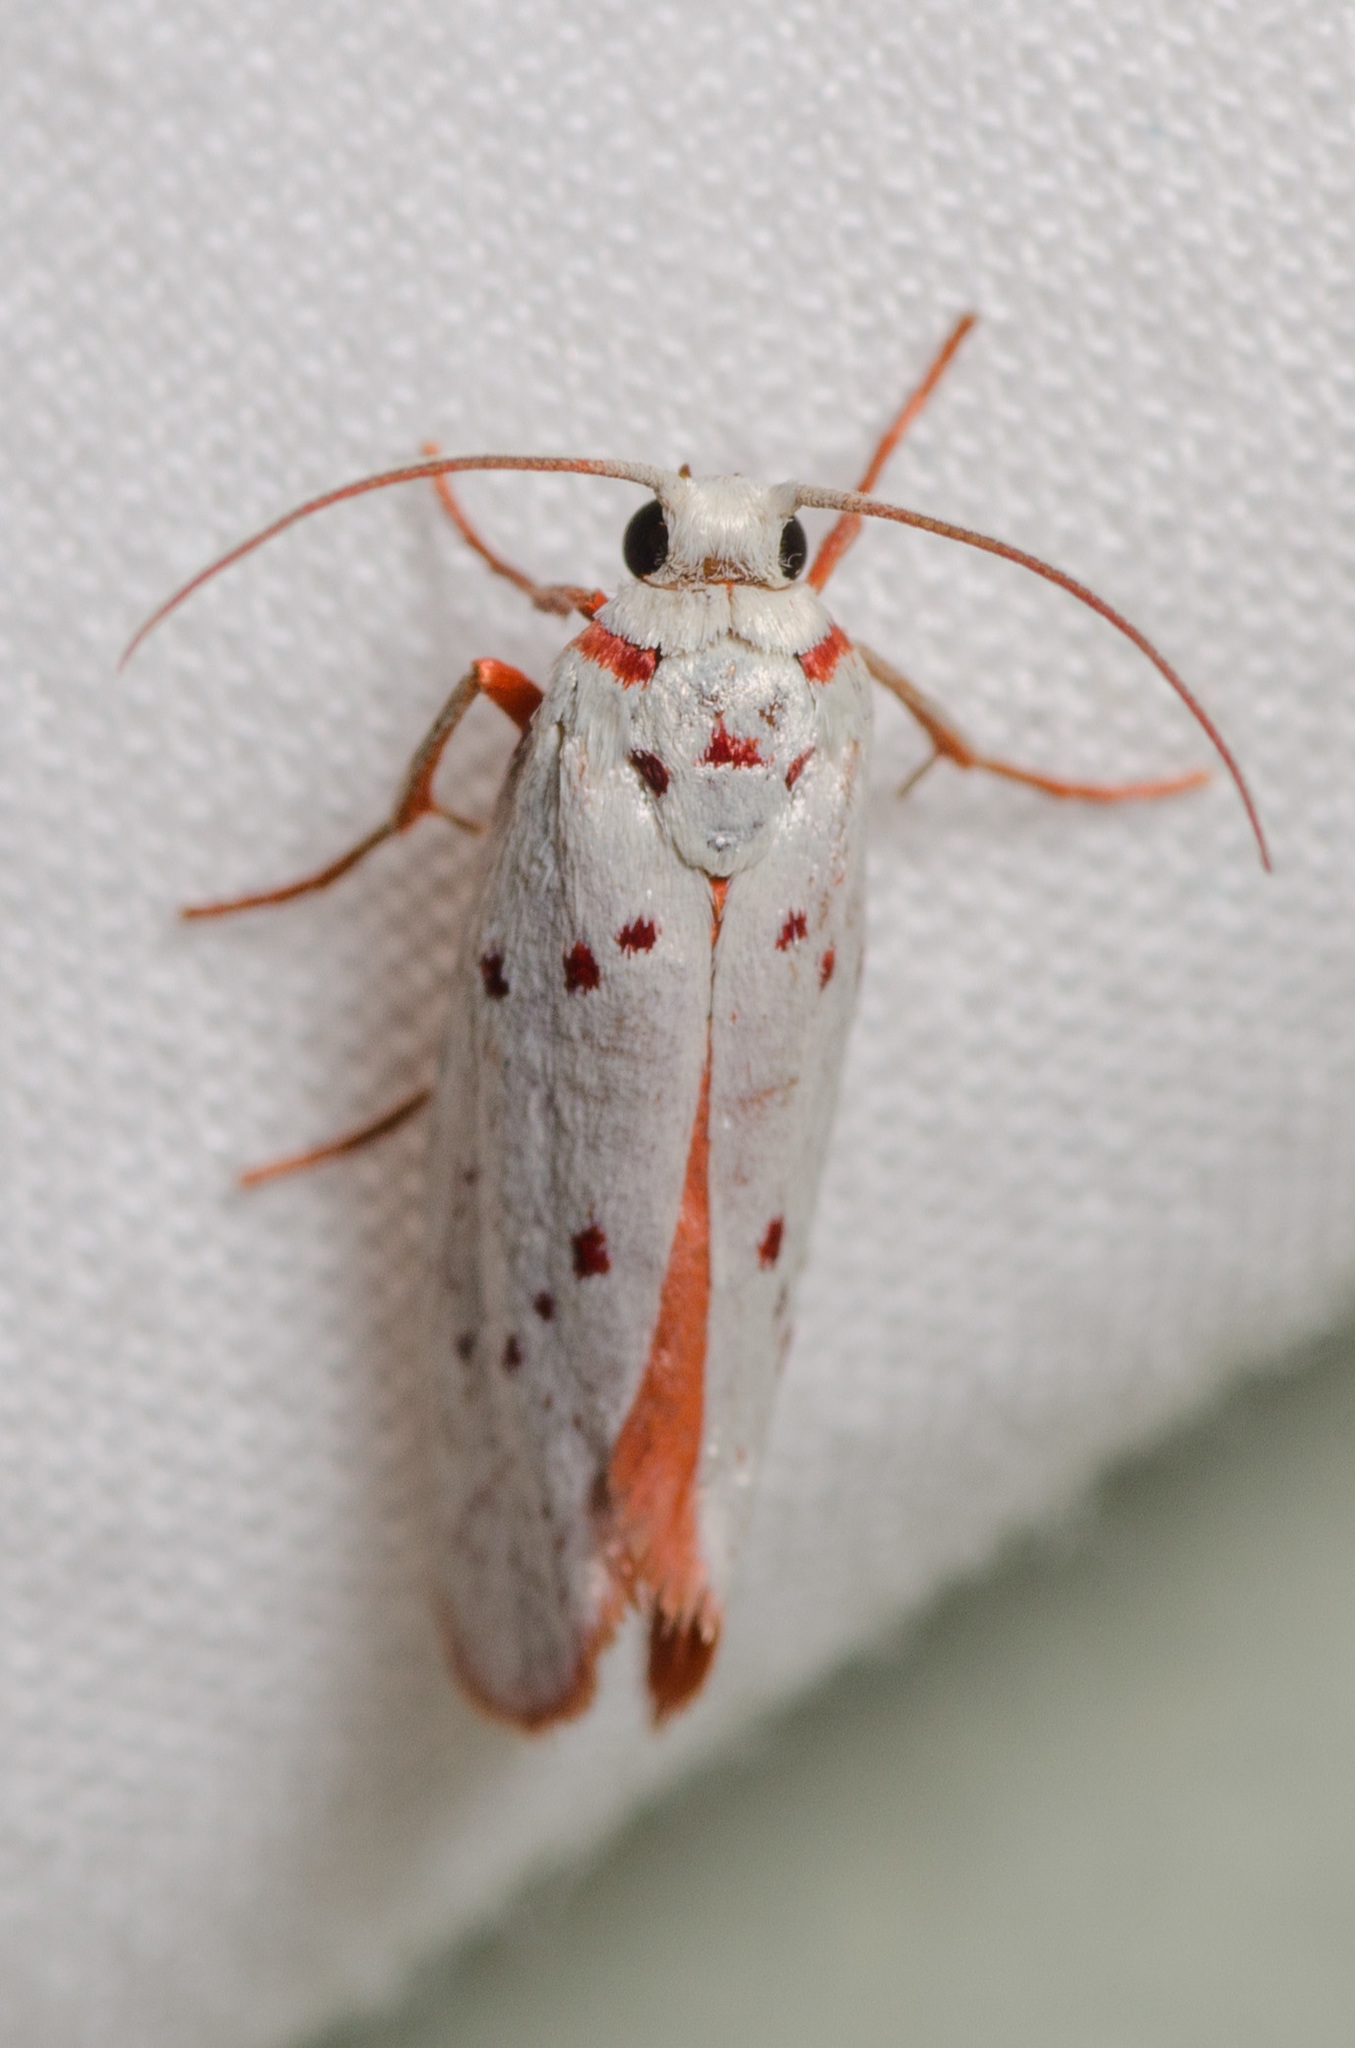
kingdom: Animalia
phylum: Arthropoda
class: Insecta
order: Lepidoptera
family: Lacturidae
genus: Lactura
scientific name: Lactura
